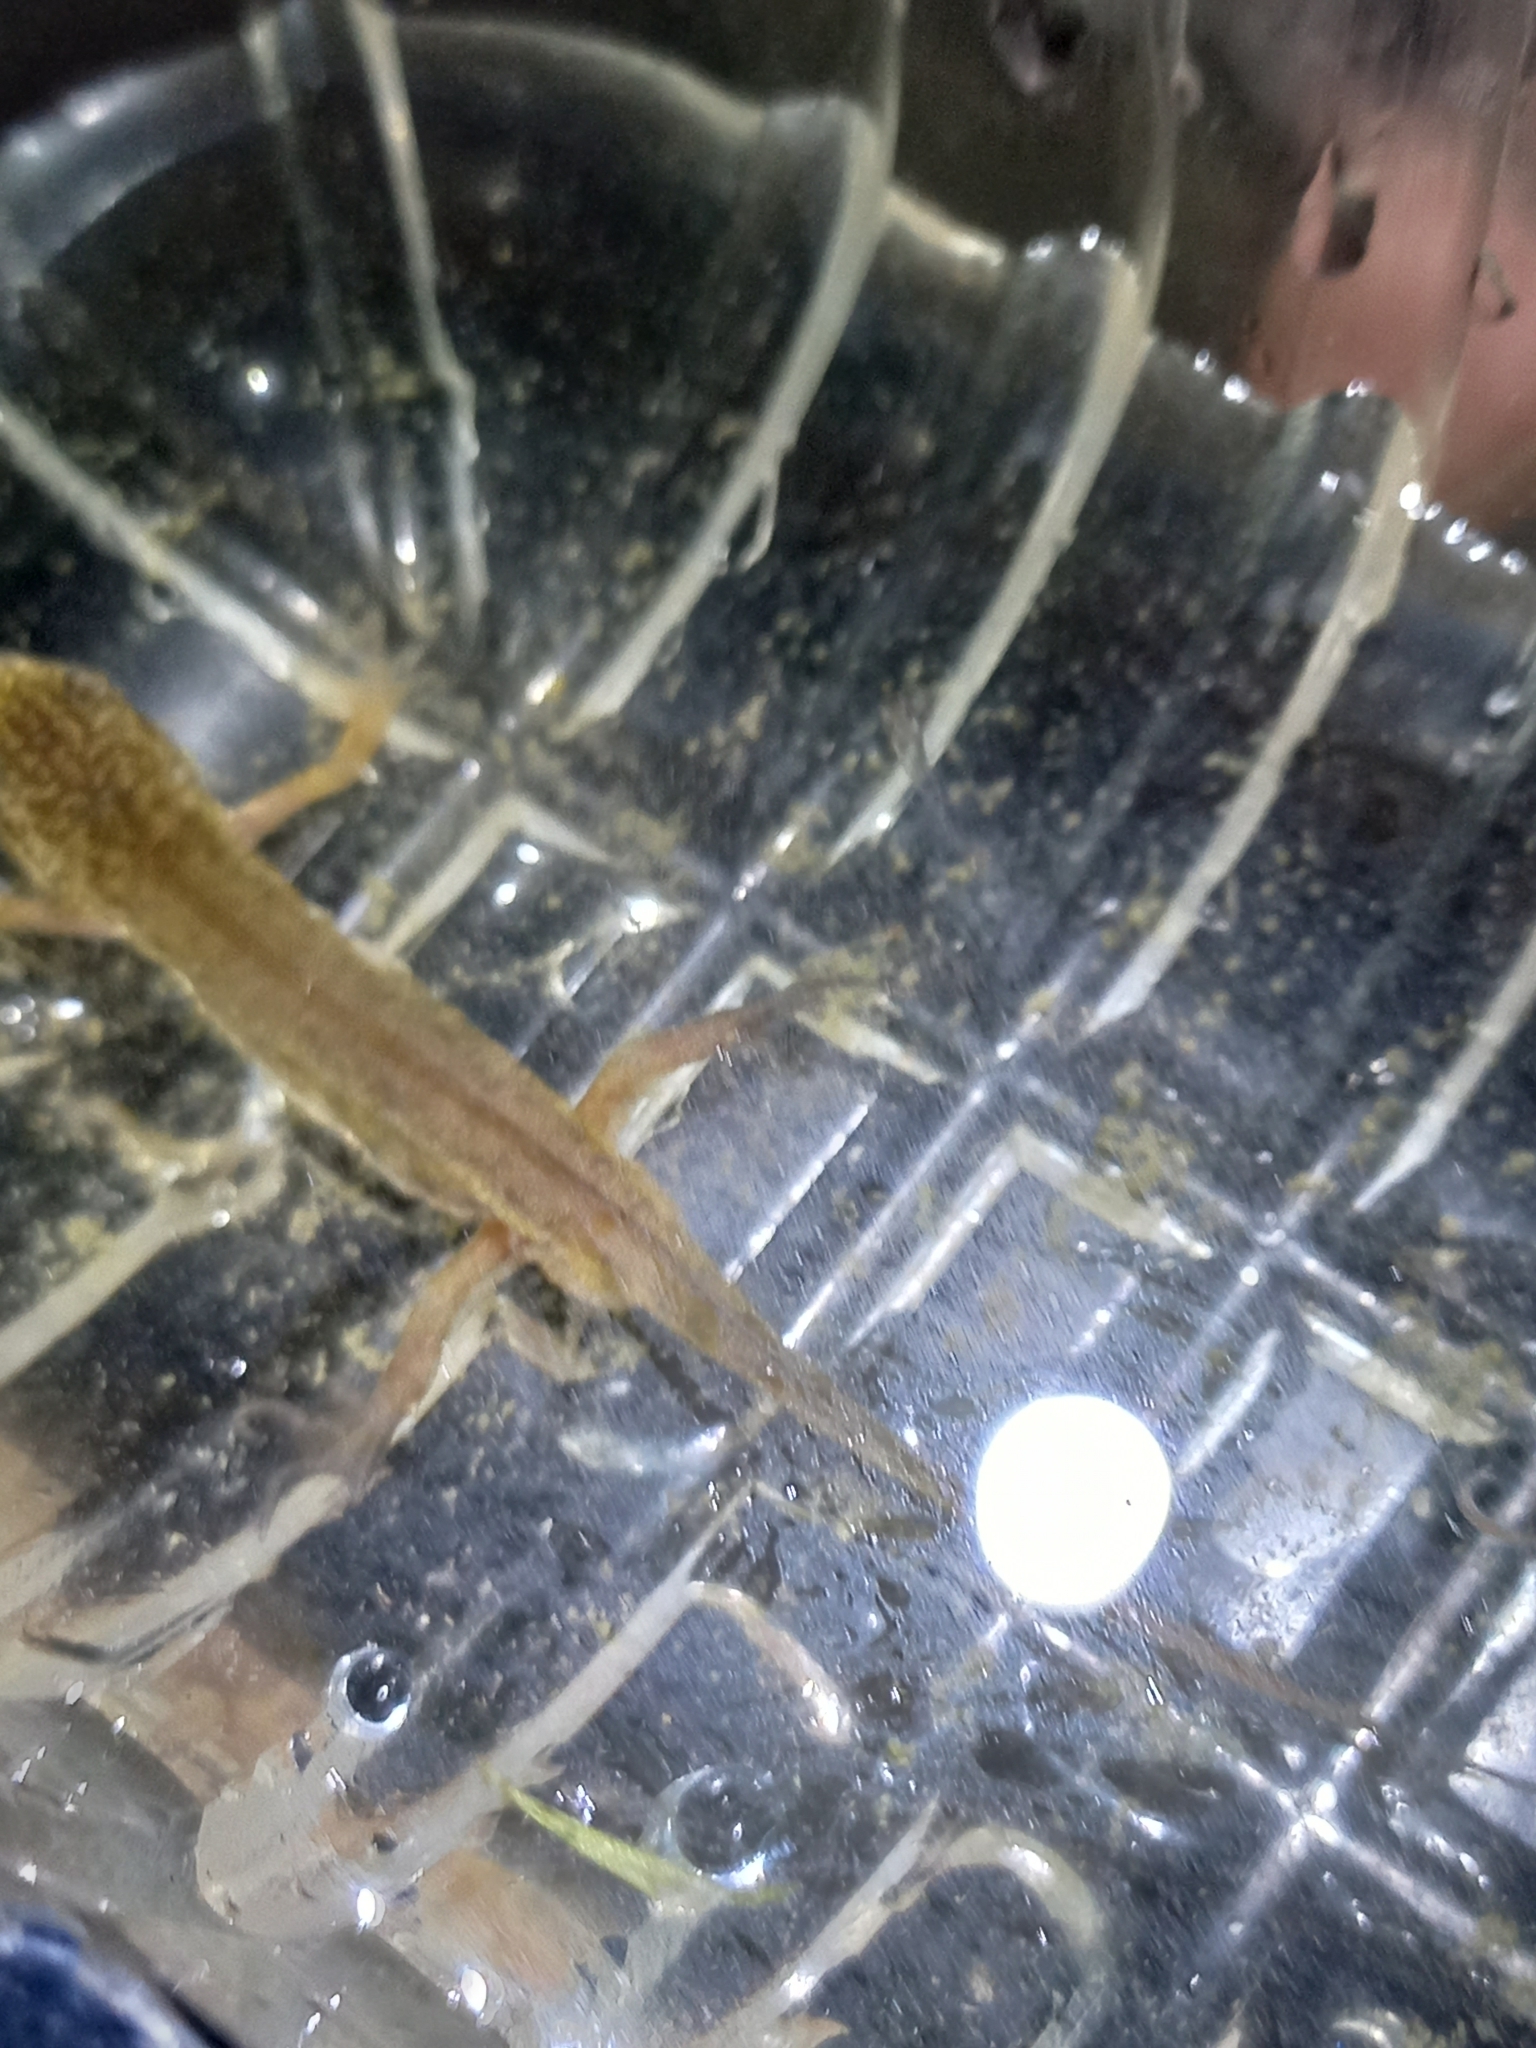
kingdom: Animalia
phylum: Chordata
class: Amphibia
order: Caudata
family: Salamandridae
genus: Lissotriton
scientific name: Lissotriton helveticus
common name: Palmate newt
